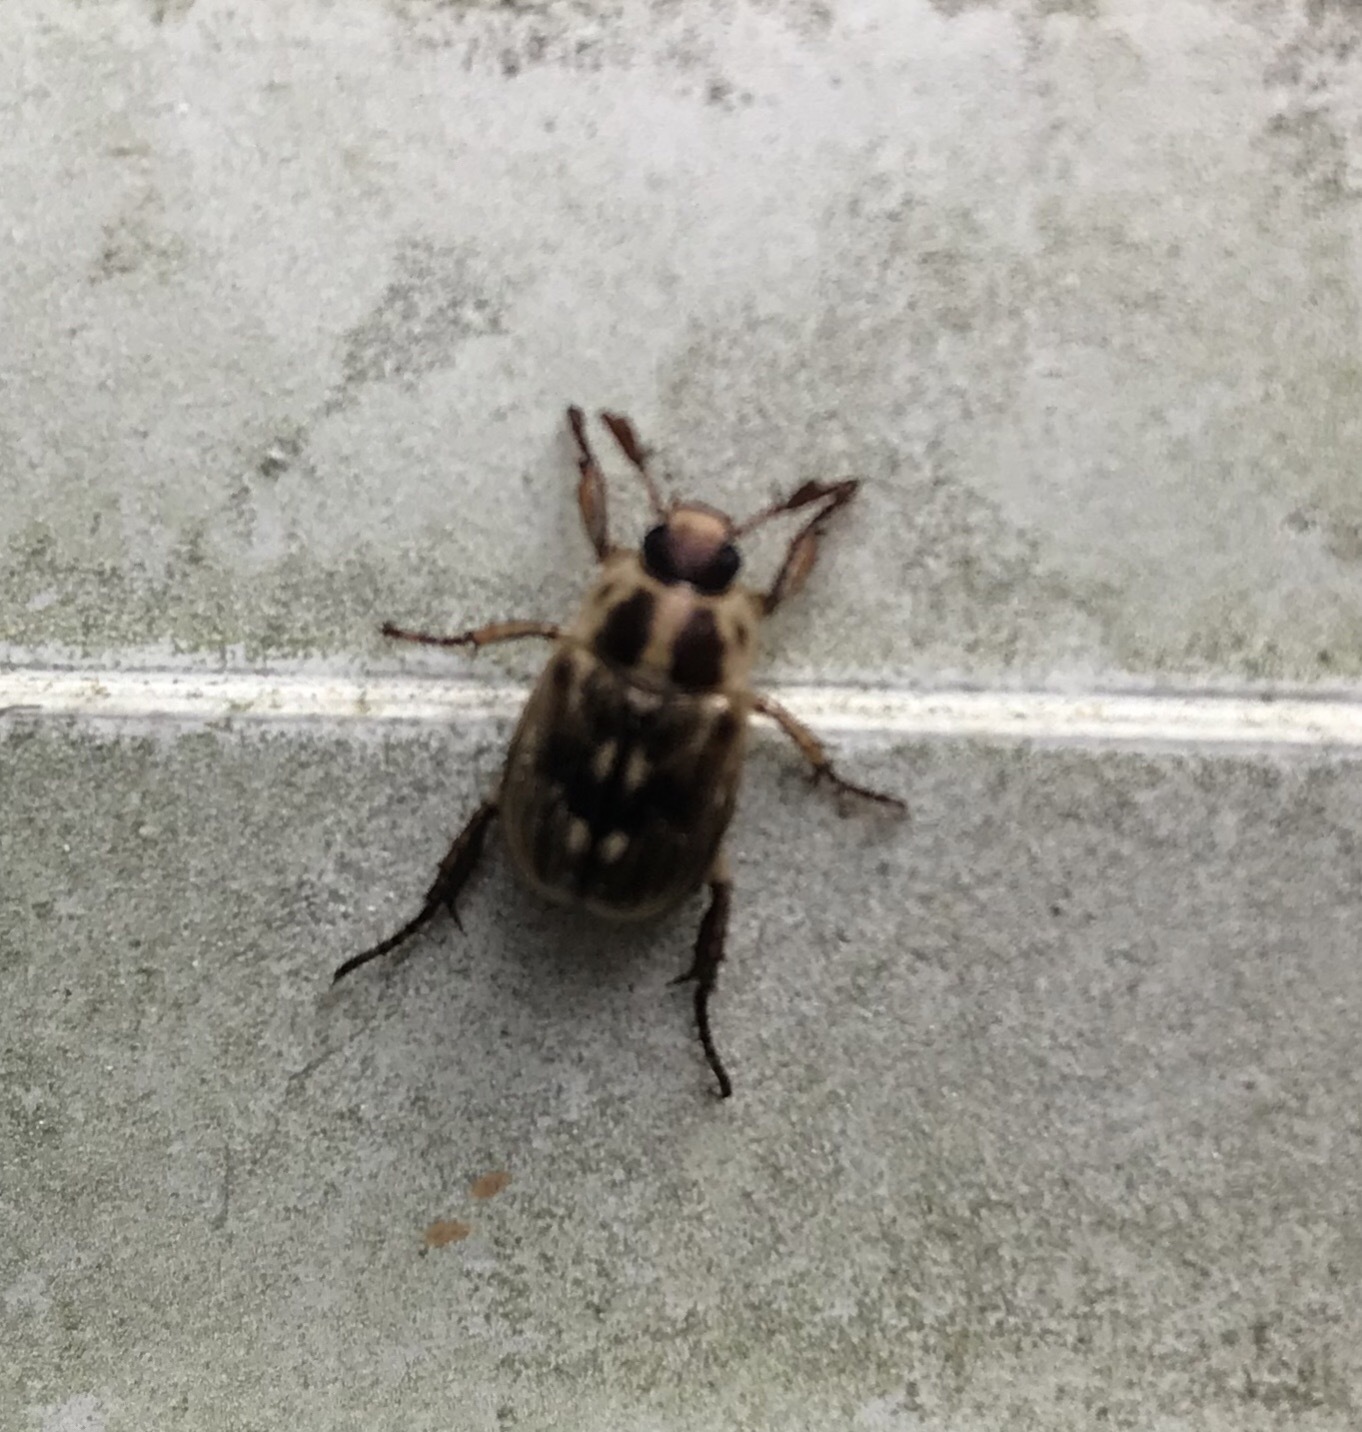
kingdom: Animalia
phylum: Arthropoda
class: Insecta
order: Coleoptera
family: Scarabaeidae
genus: Exomala
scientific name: Exomala orientalis
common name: Oriental beetle
